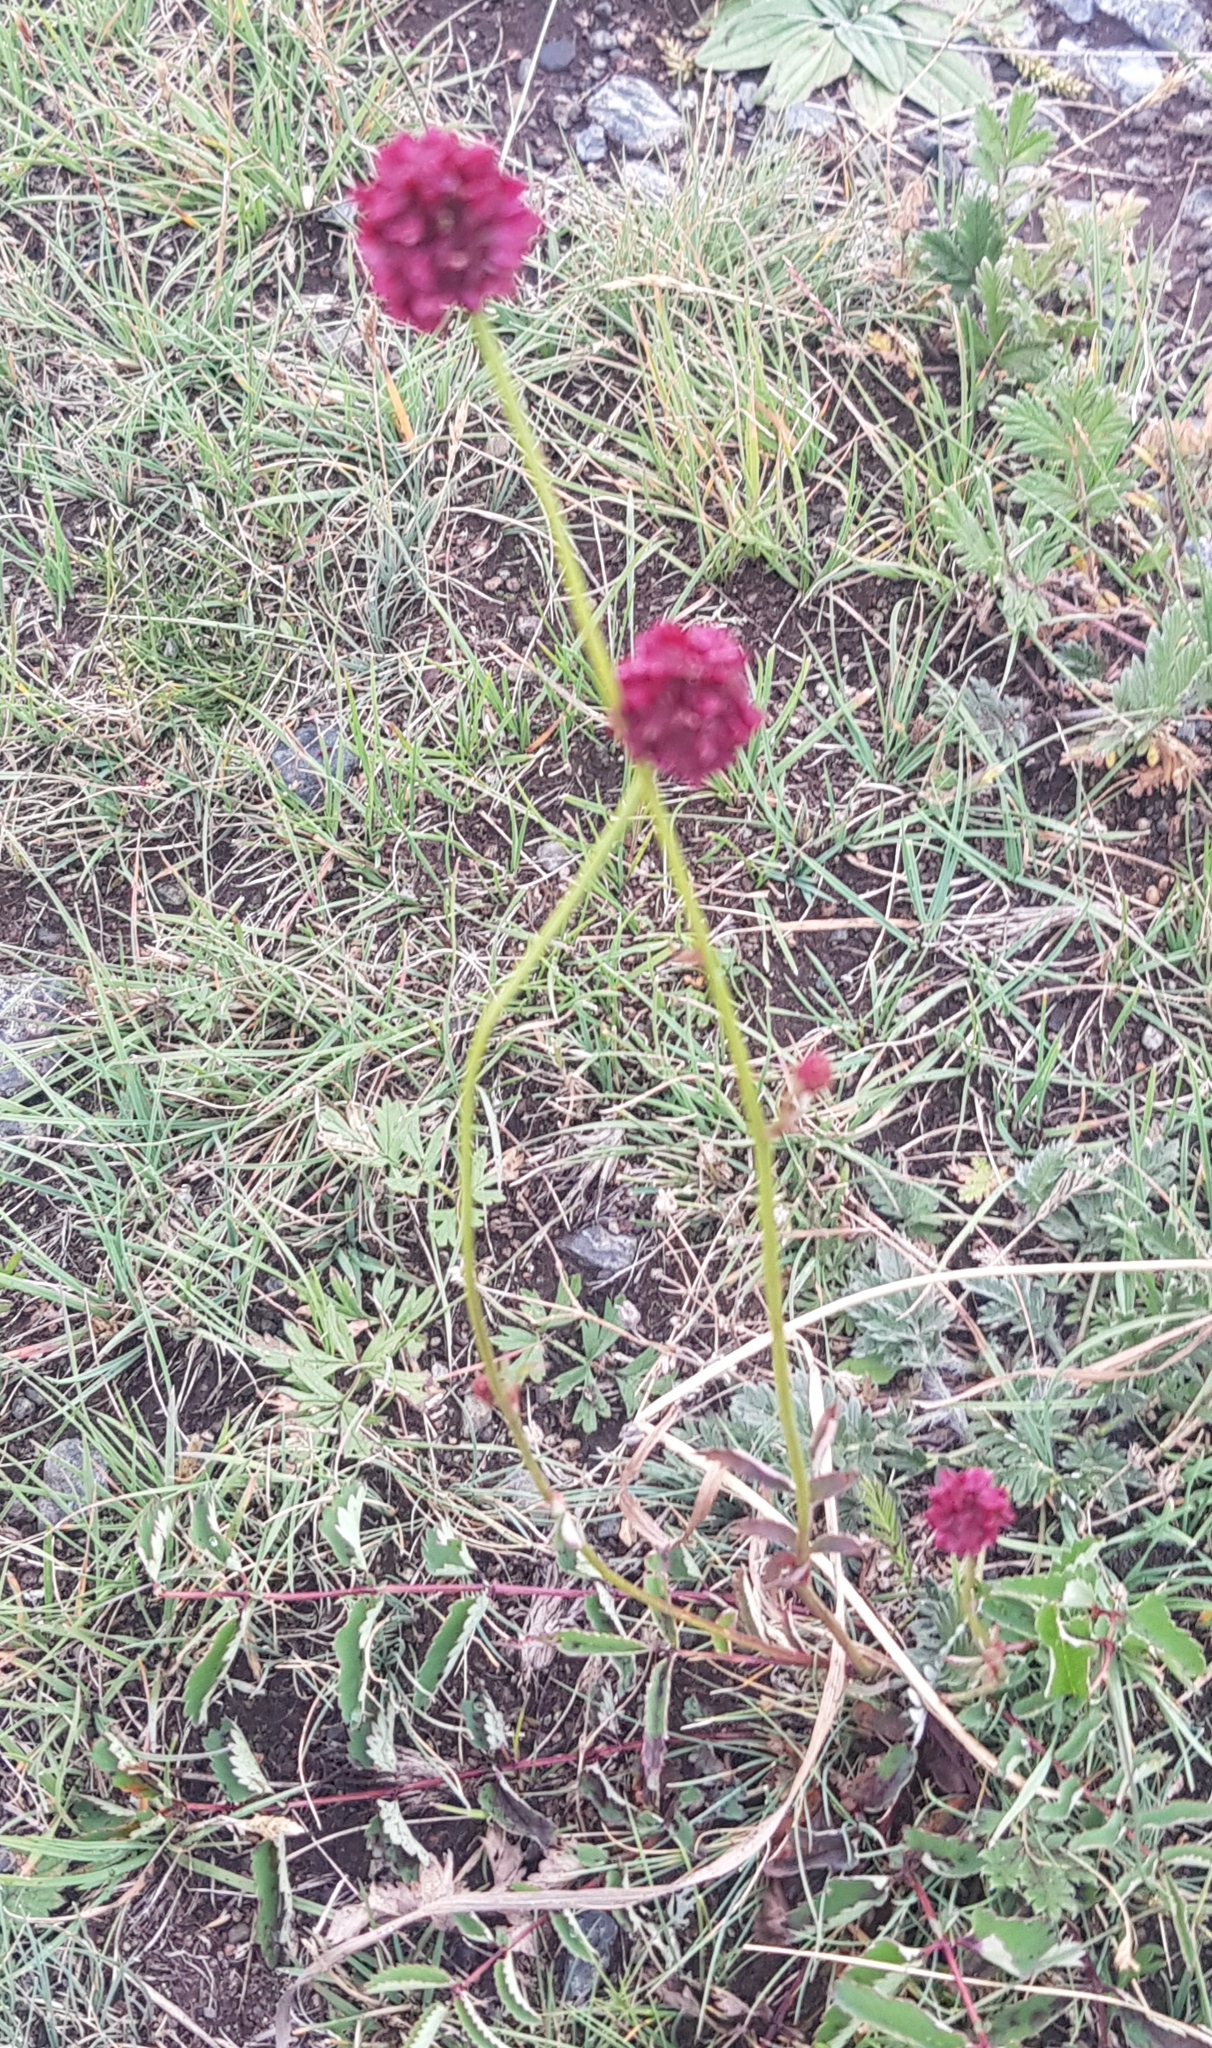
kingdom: Plantae
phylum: Tracheophyta
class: Magnoliopsida
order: Rosales
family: Rosaceae
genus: Sanguisorba
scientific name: Sanguisorba officinalis
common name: Great burnet
